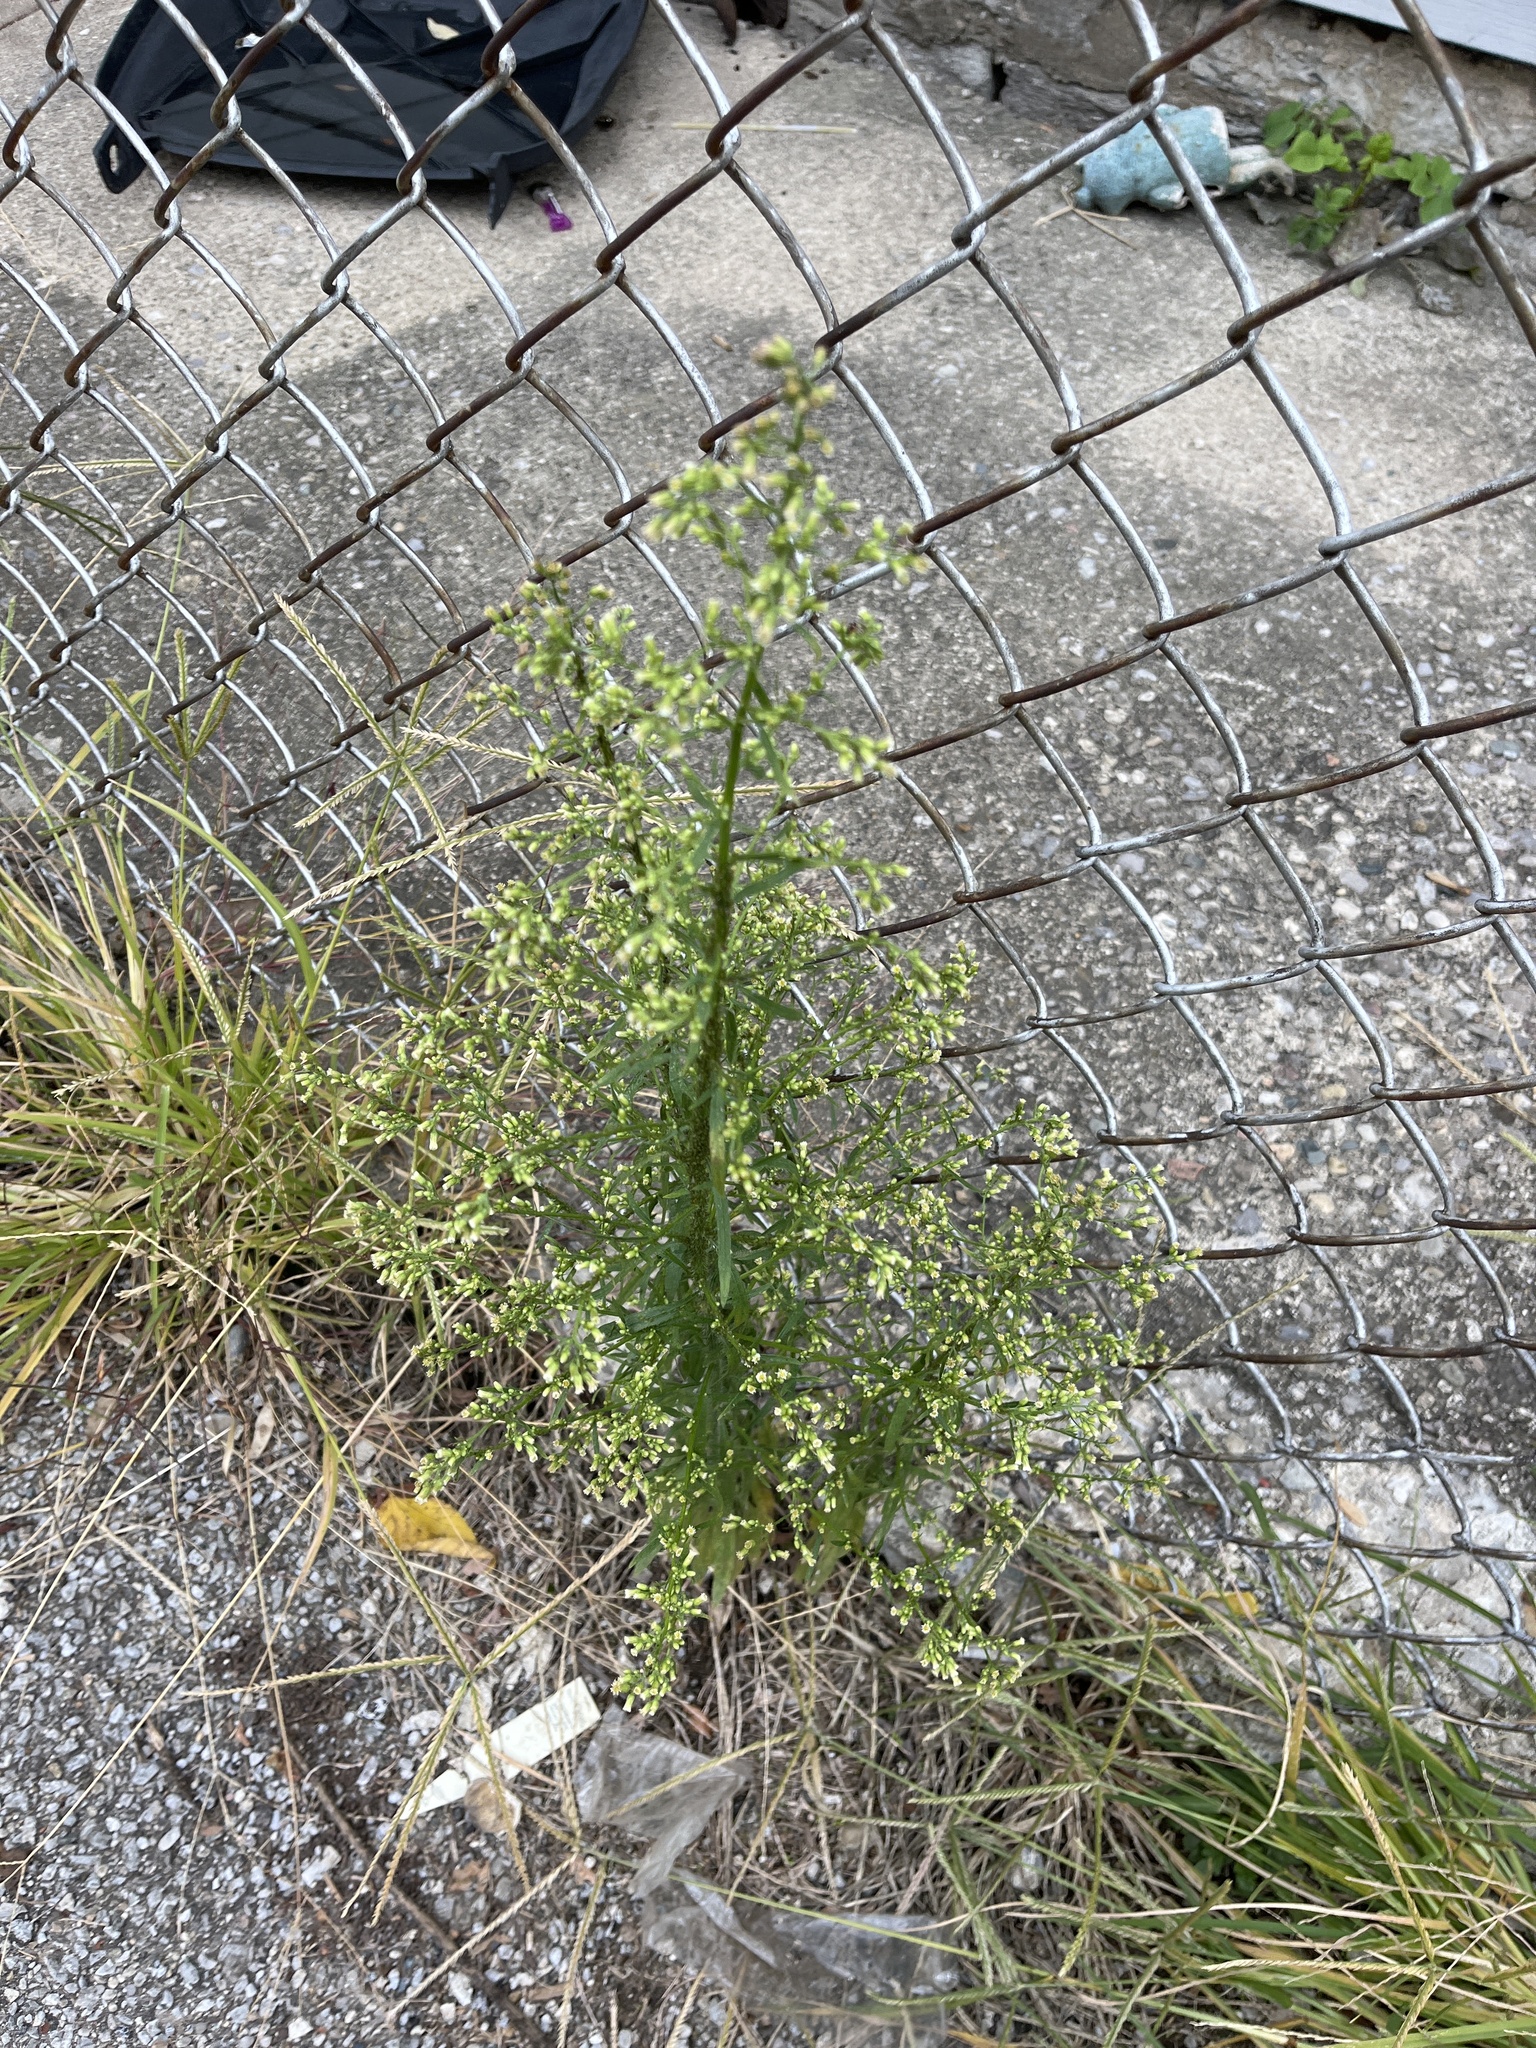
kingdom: Plantae
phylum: Tracheophyta
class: Magnoliopsida
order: Asterales
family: Asteraceae
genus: Erigeron
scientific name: Erigeron canadensis
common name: Canadian fleabane
